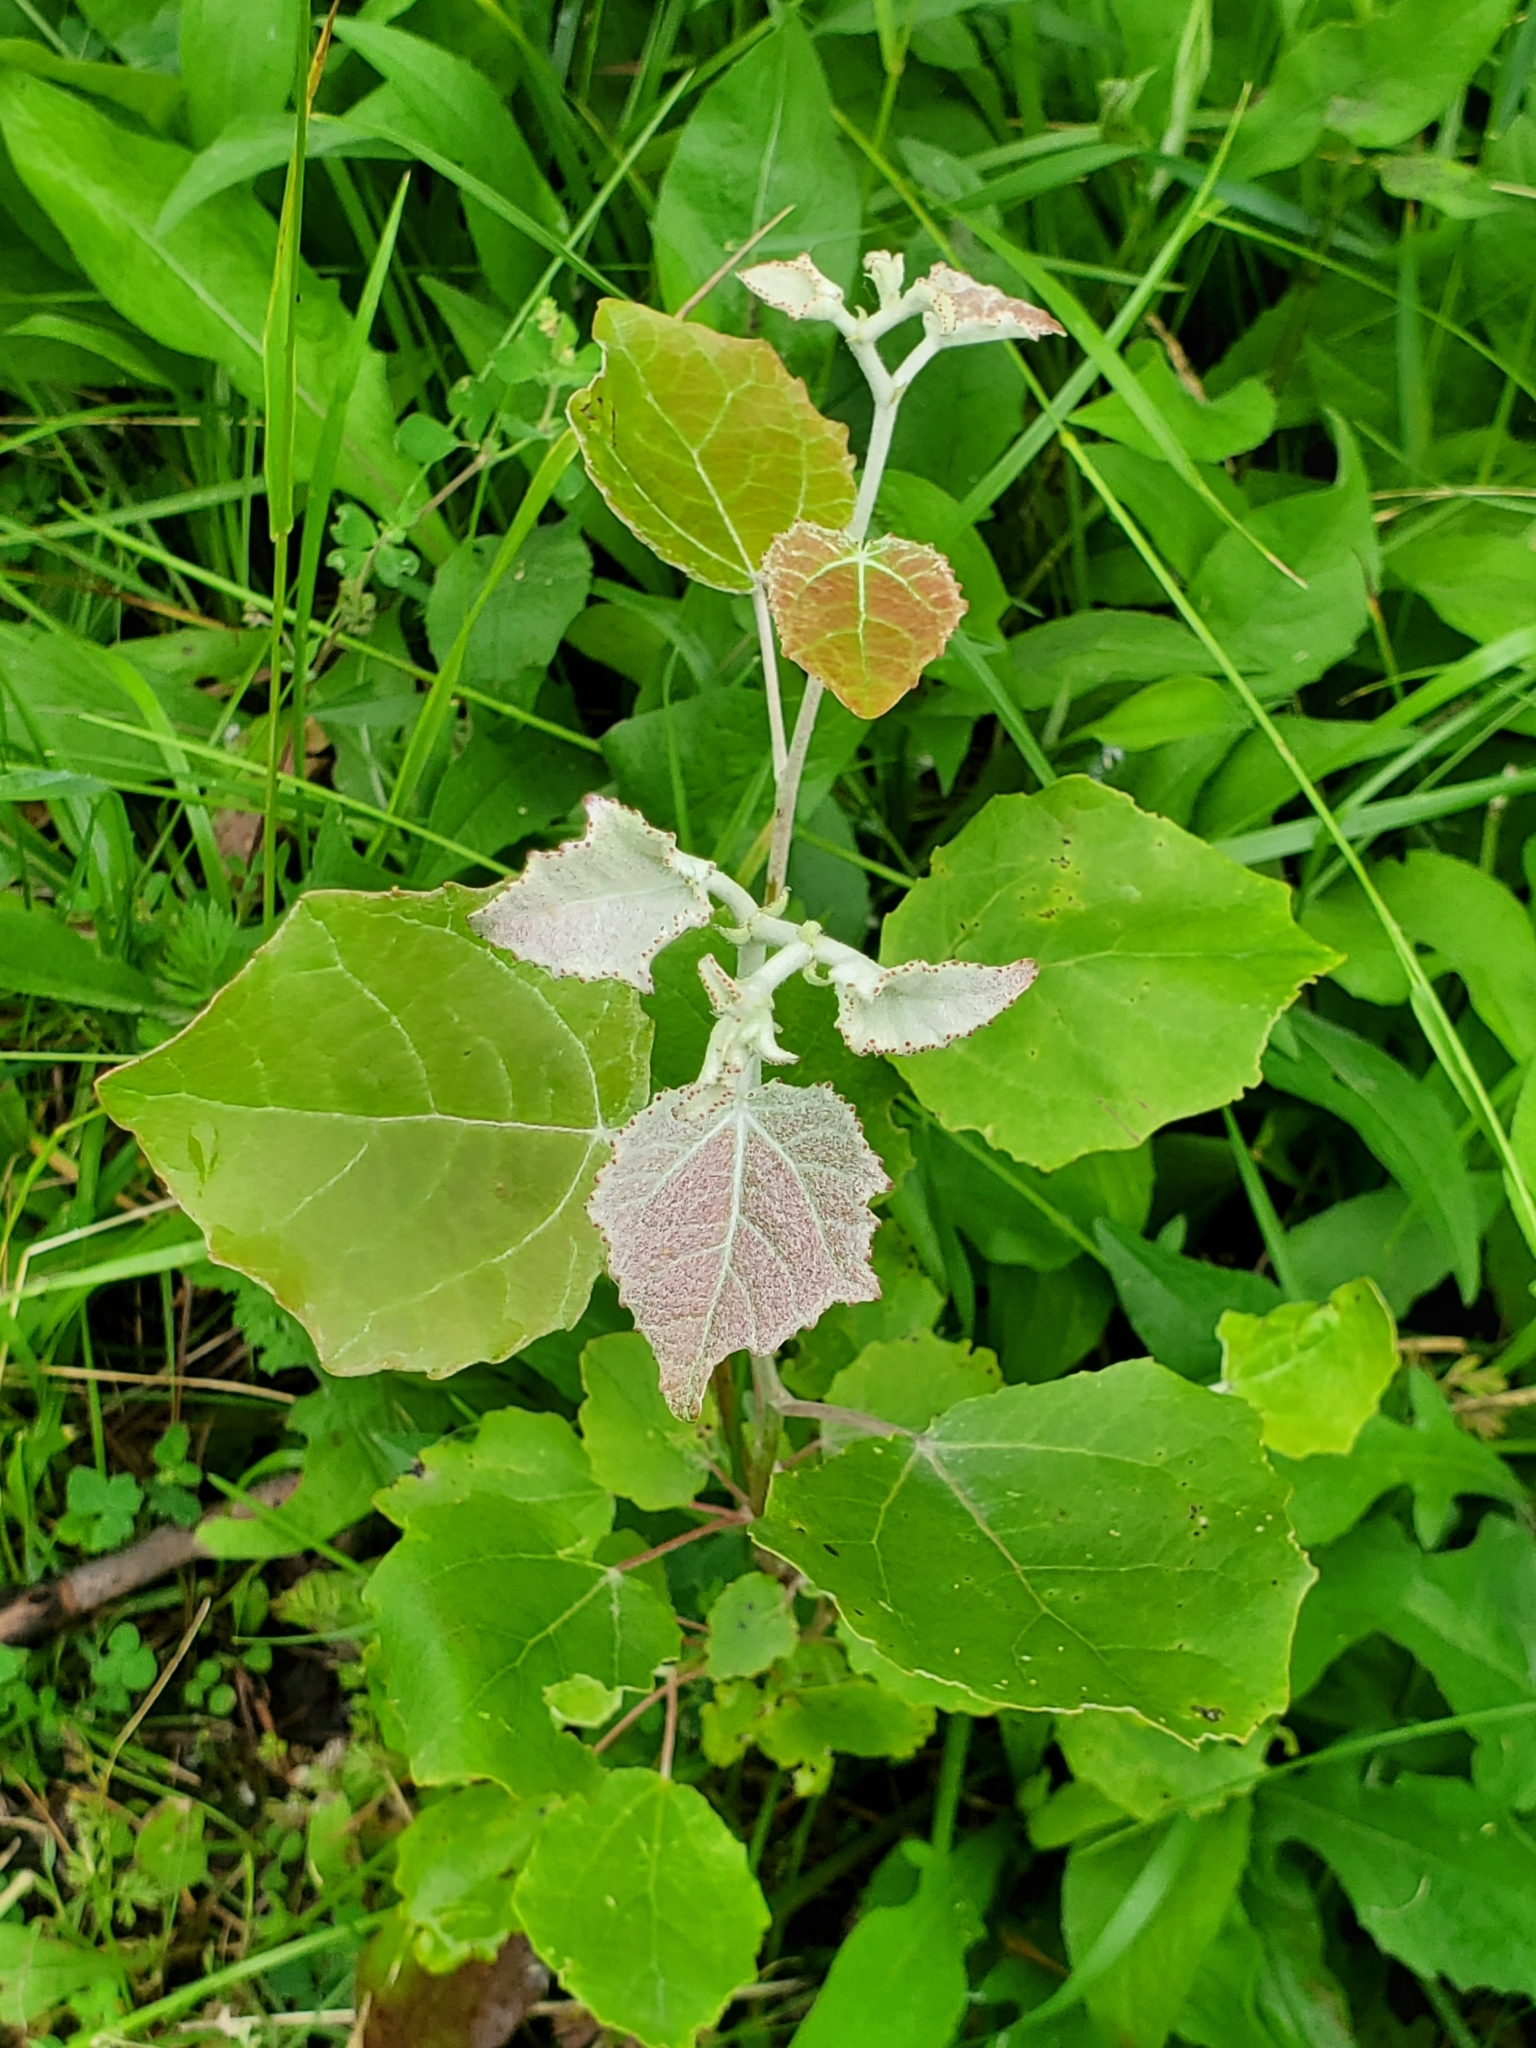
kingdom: Plantae
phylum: Tracheophyta
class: Magnoliopsida
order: Malpighiales
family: Salicaceae
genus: Populus
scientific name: Populus grandidentata
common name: Bigtooth aspen
